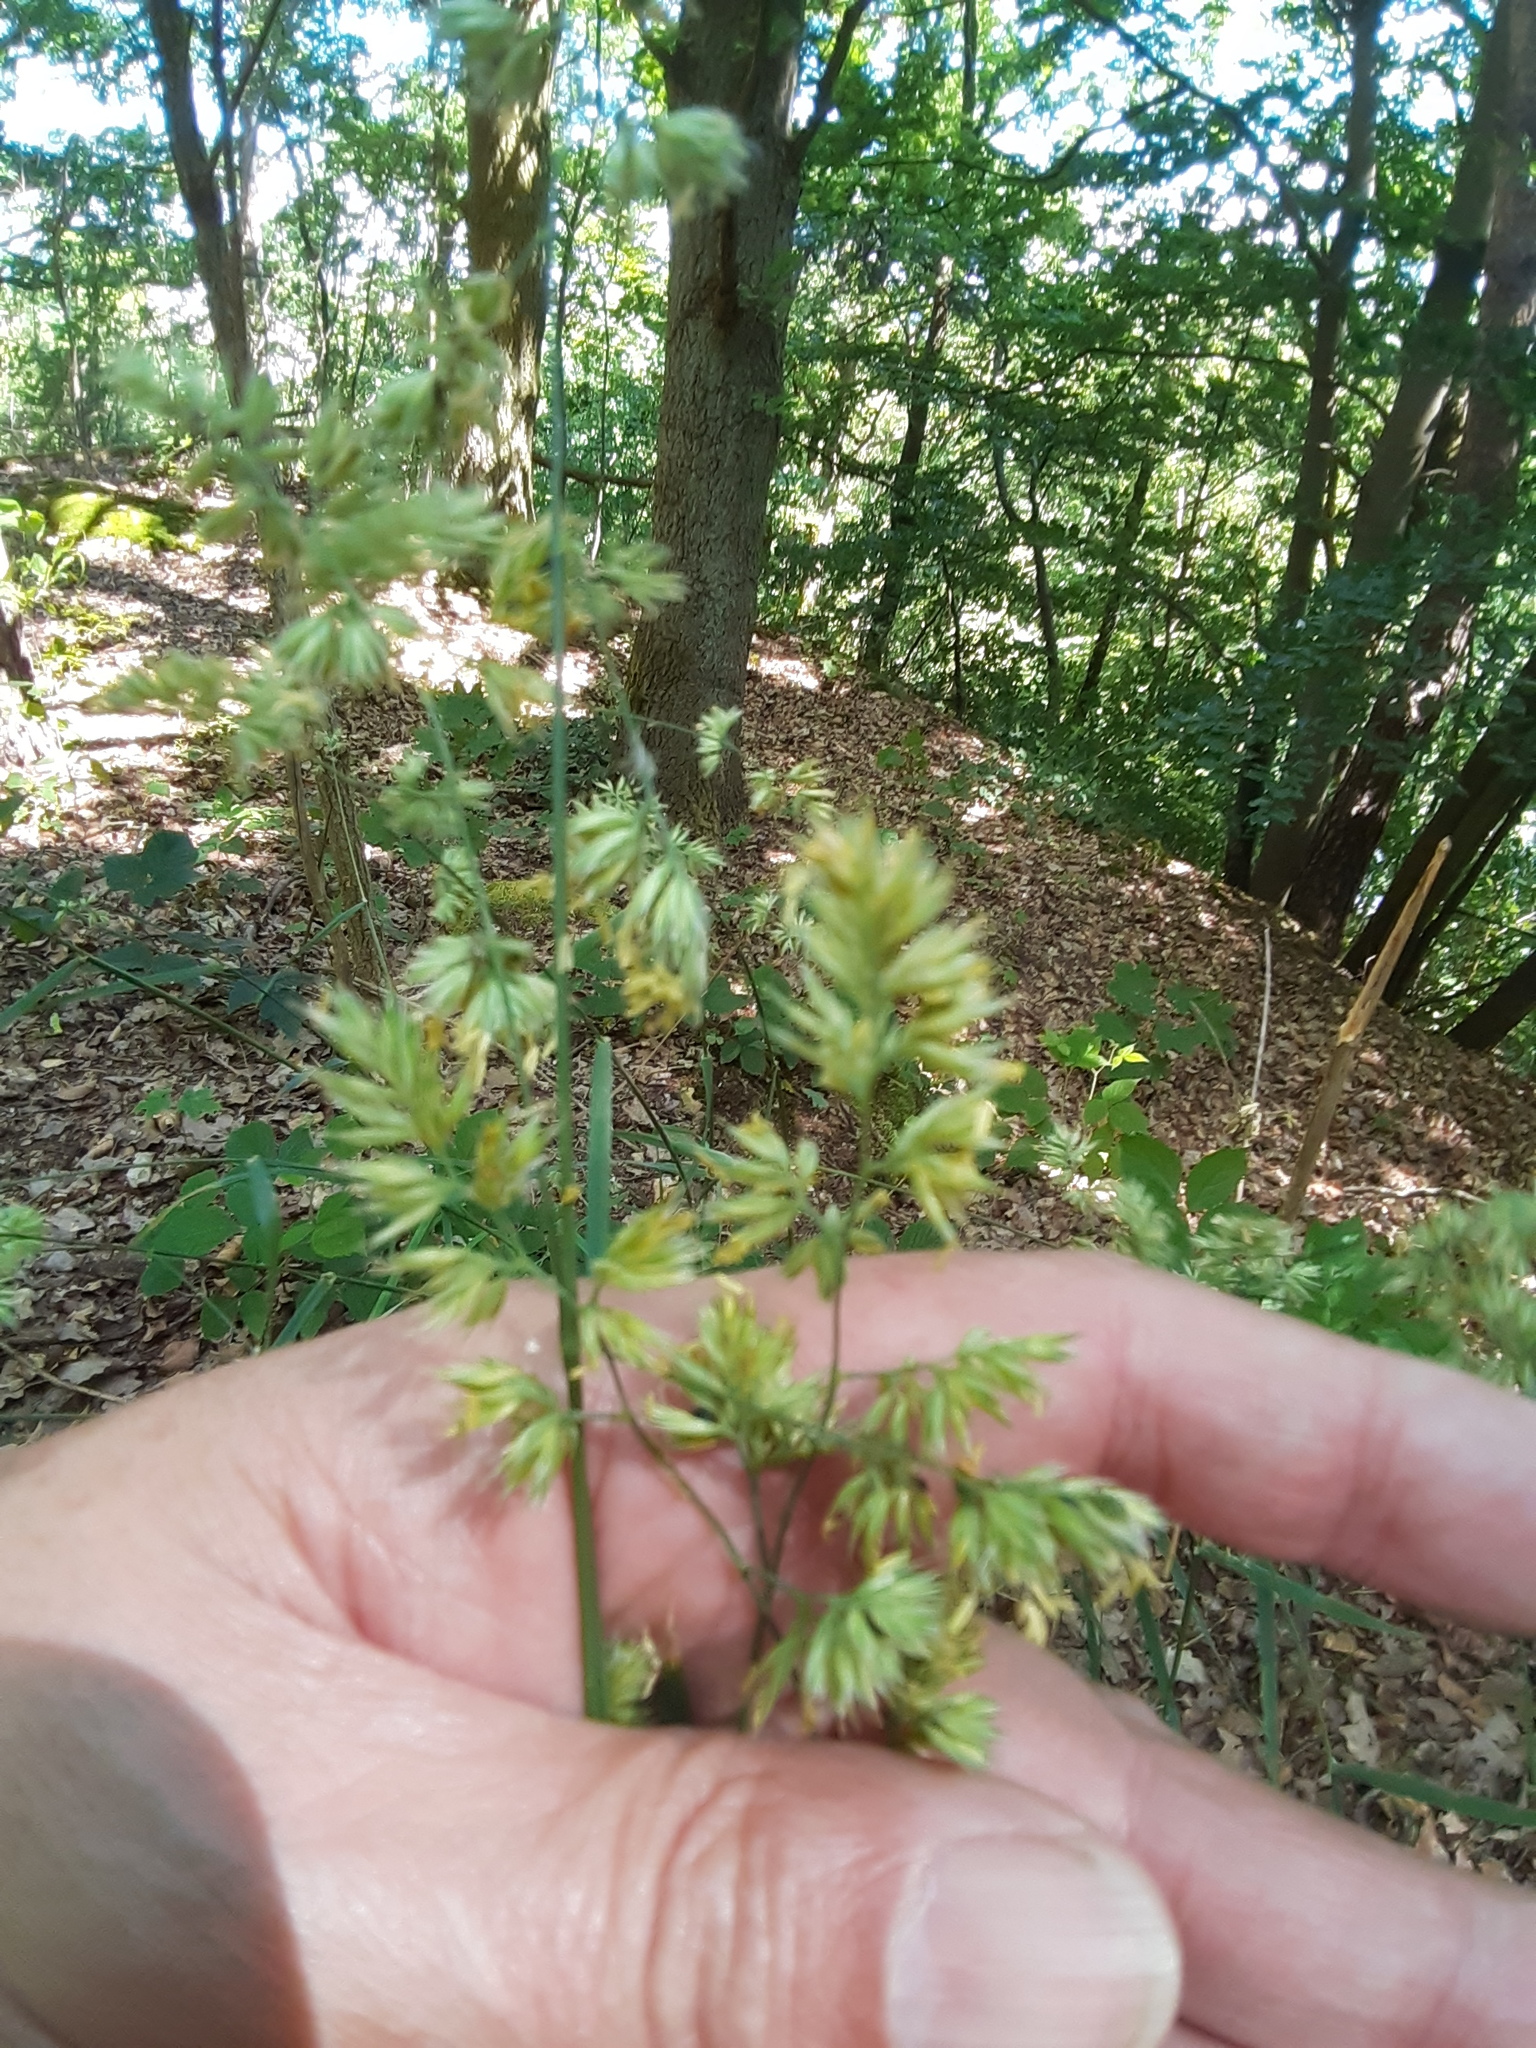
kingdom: Plantae
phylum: Tracheophyta
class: Liliopsida
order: Poales
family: Poaceae
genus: Dactylis
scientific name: Dactylis glomerata
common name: Orchardgrass
